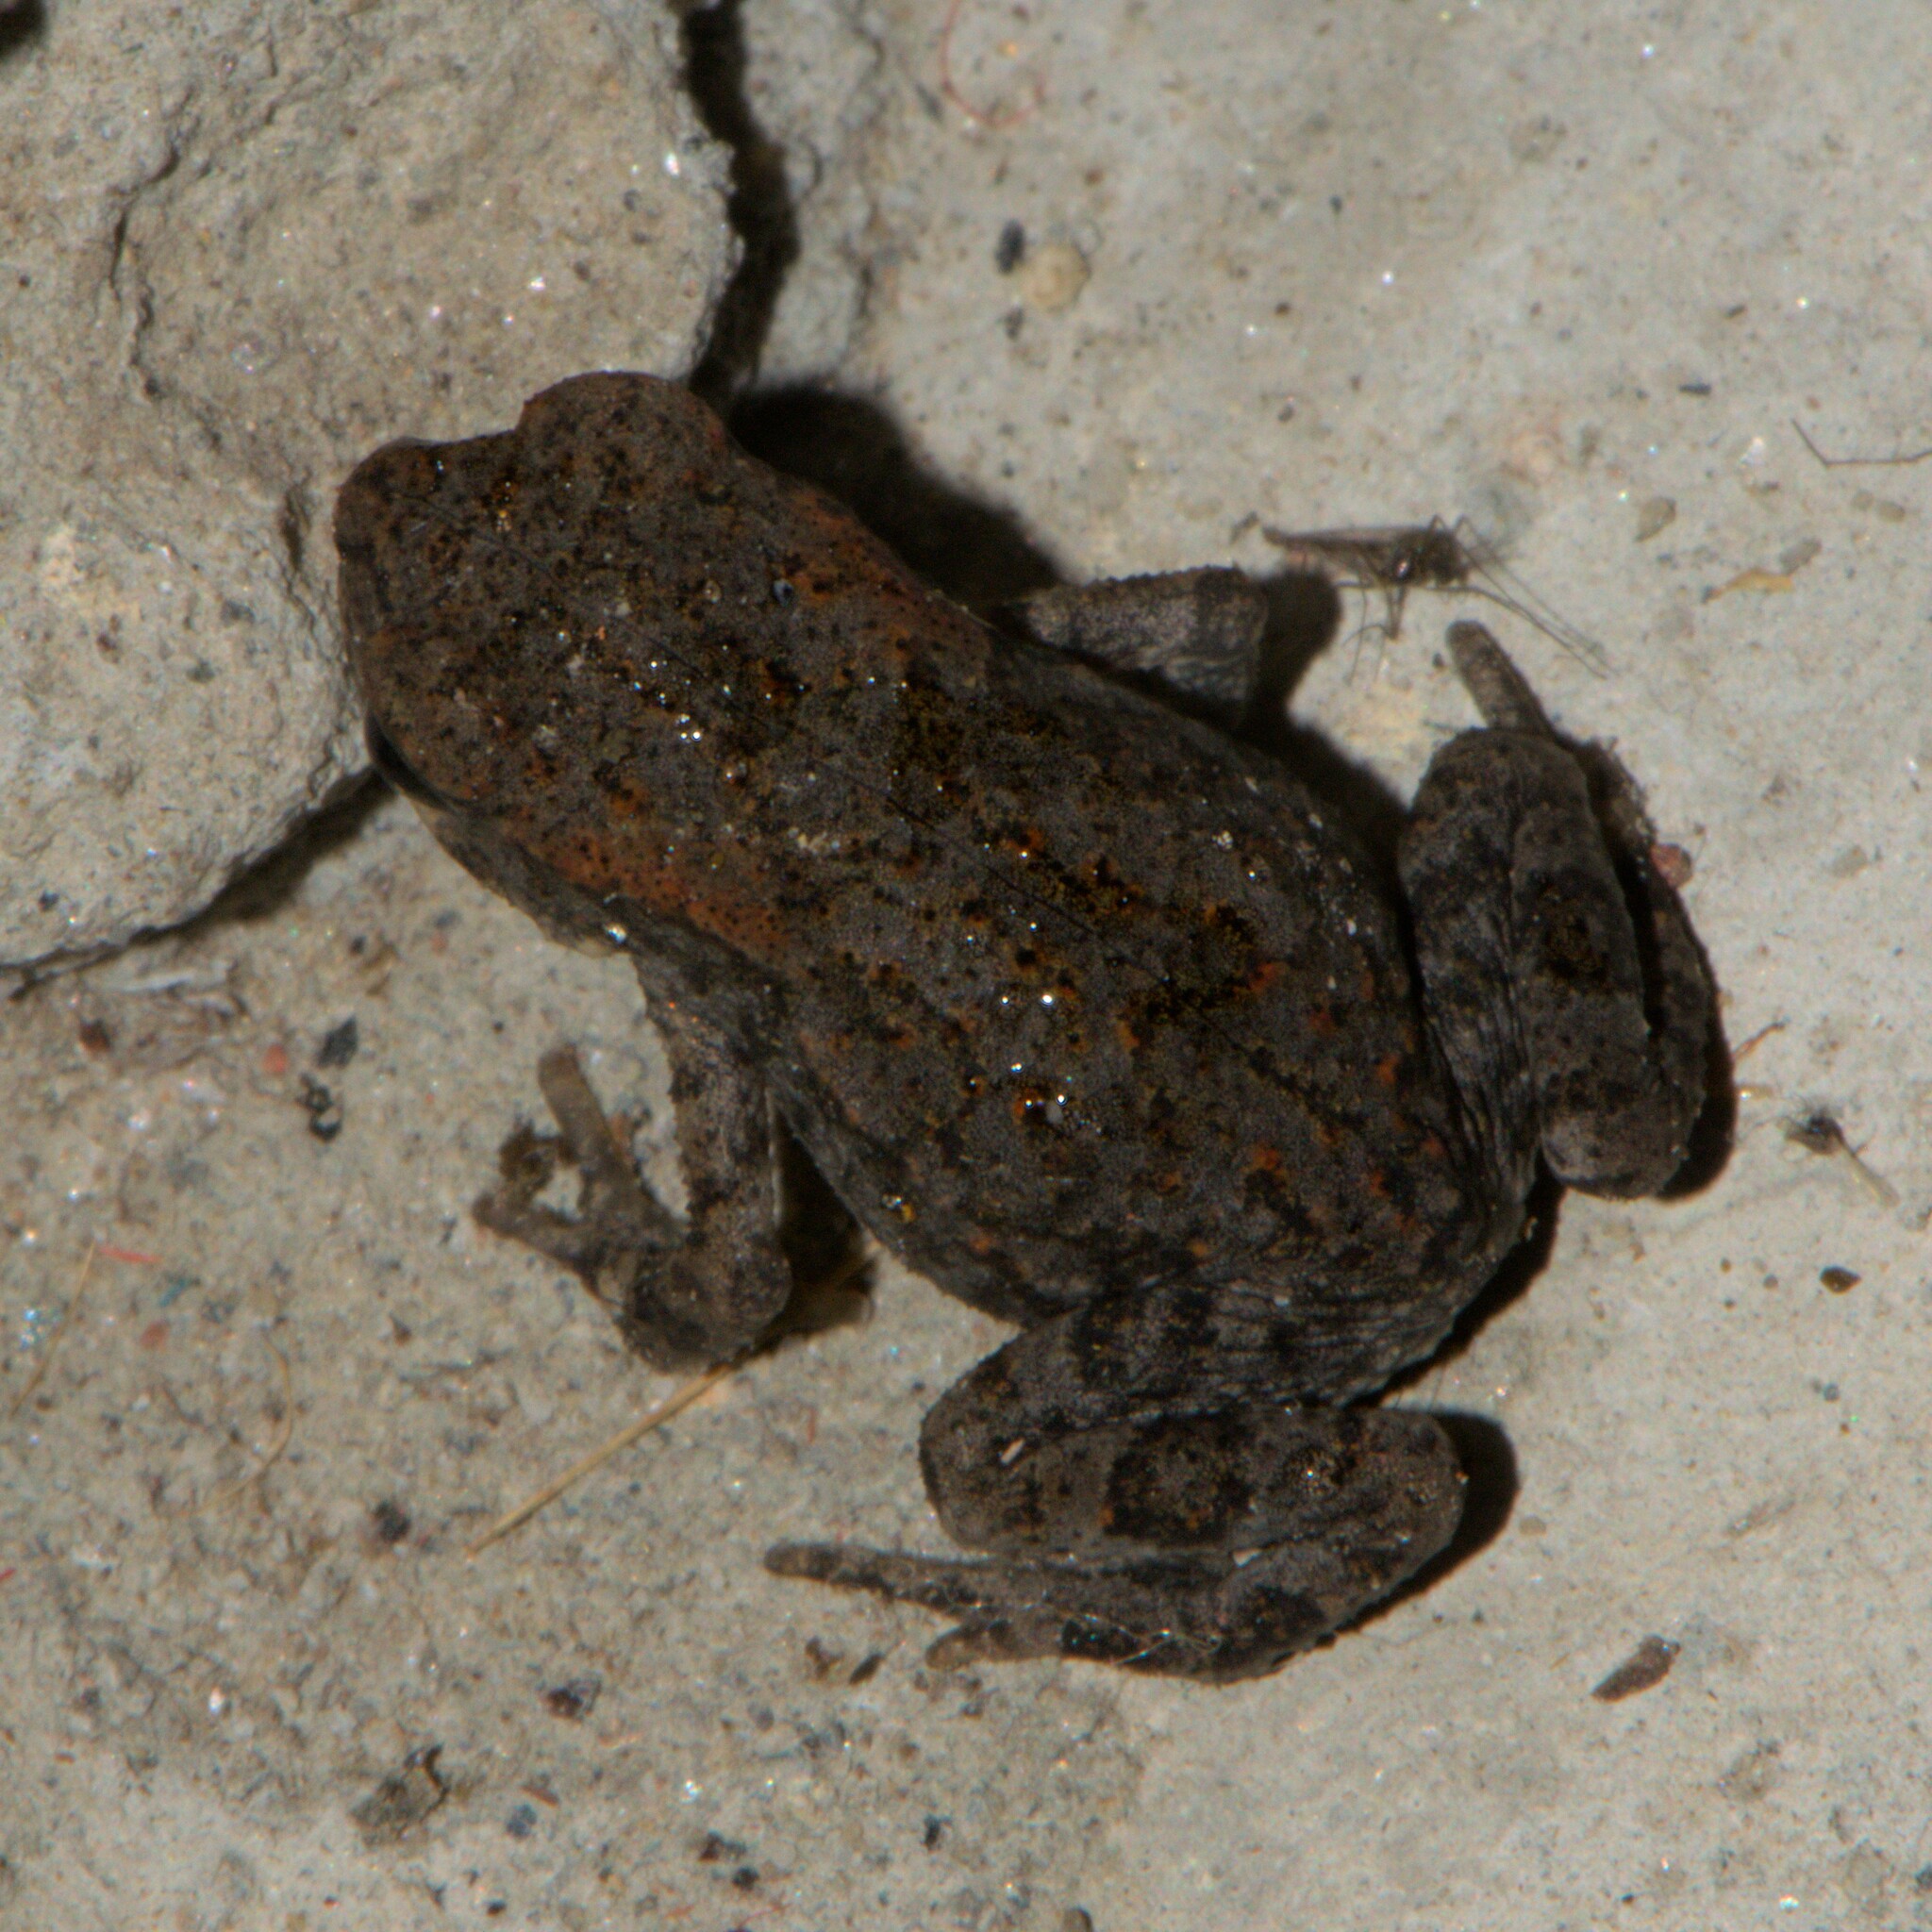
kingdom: Animalia
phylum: Chordata
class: Amphibia
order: Anura
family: Bufonidae
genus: Duttaphrynus
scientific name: Duttaphrynus himalayanus
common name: Günther's high altitude toad
